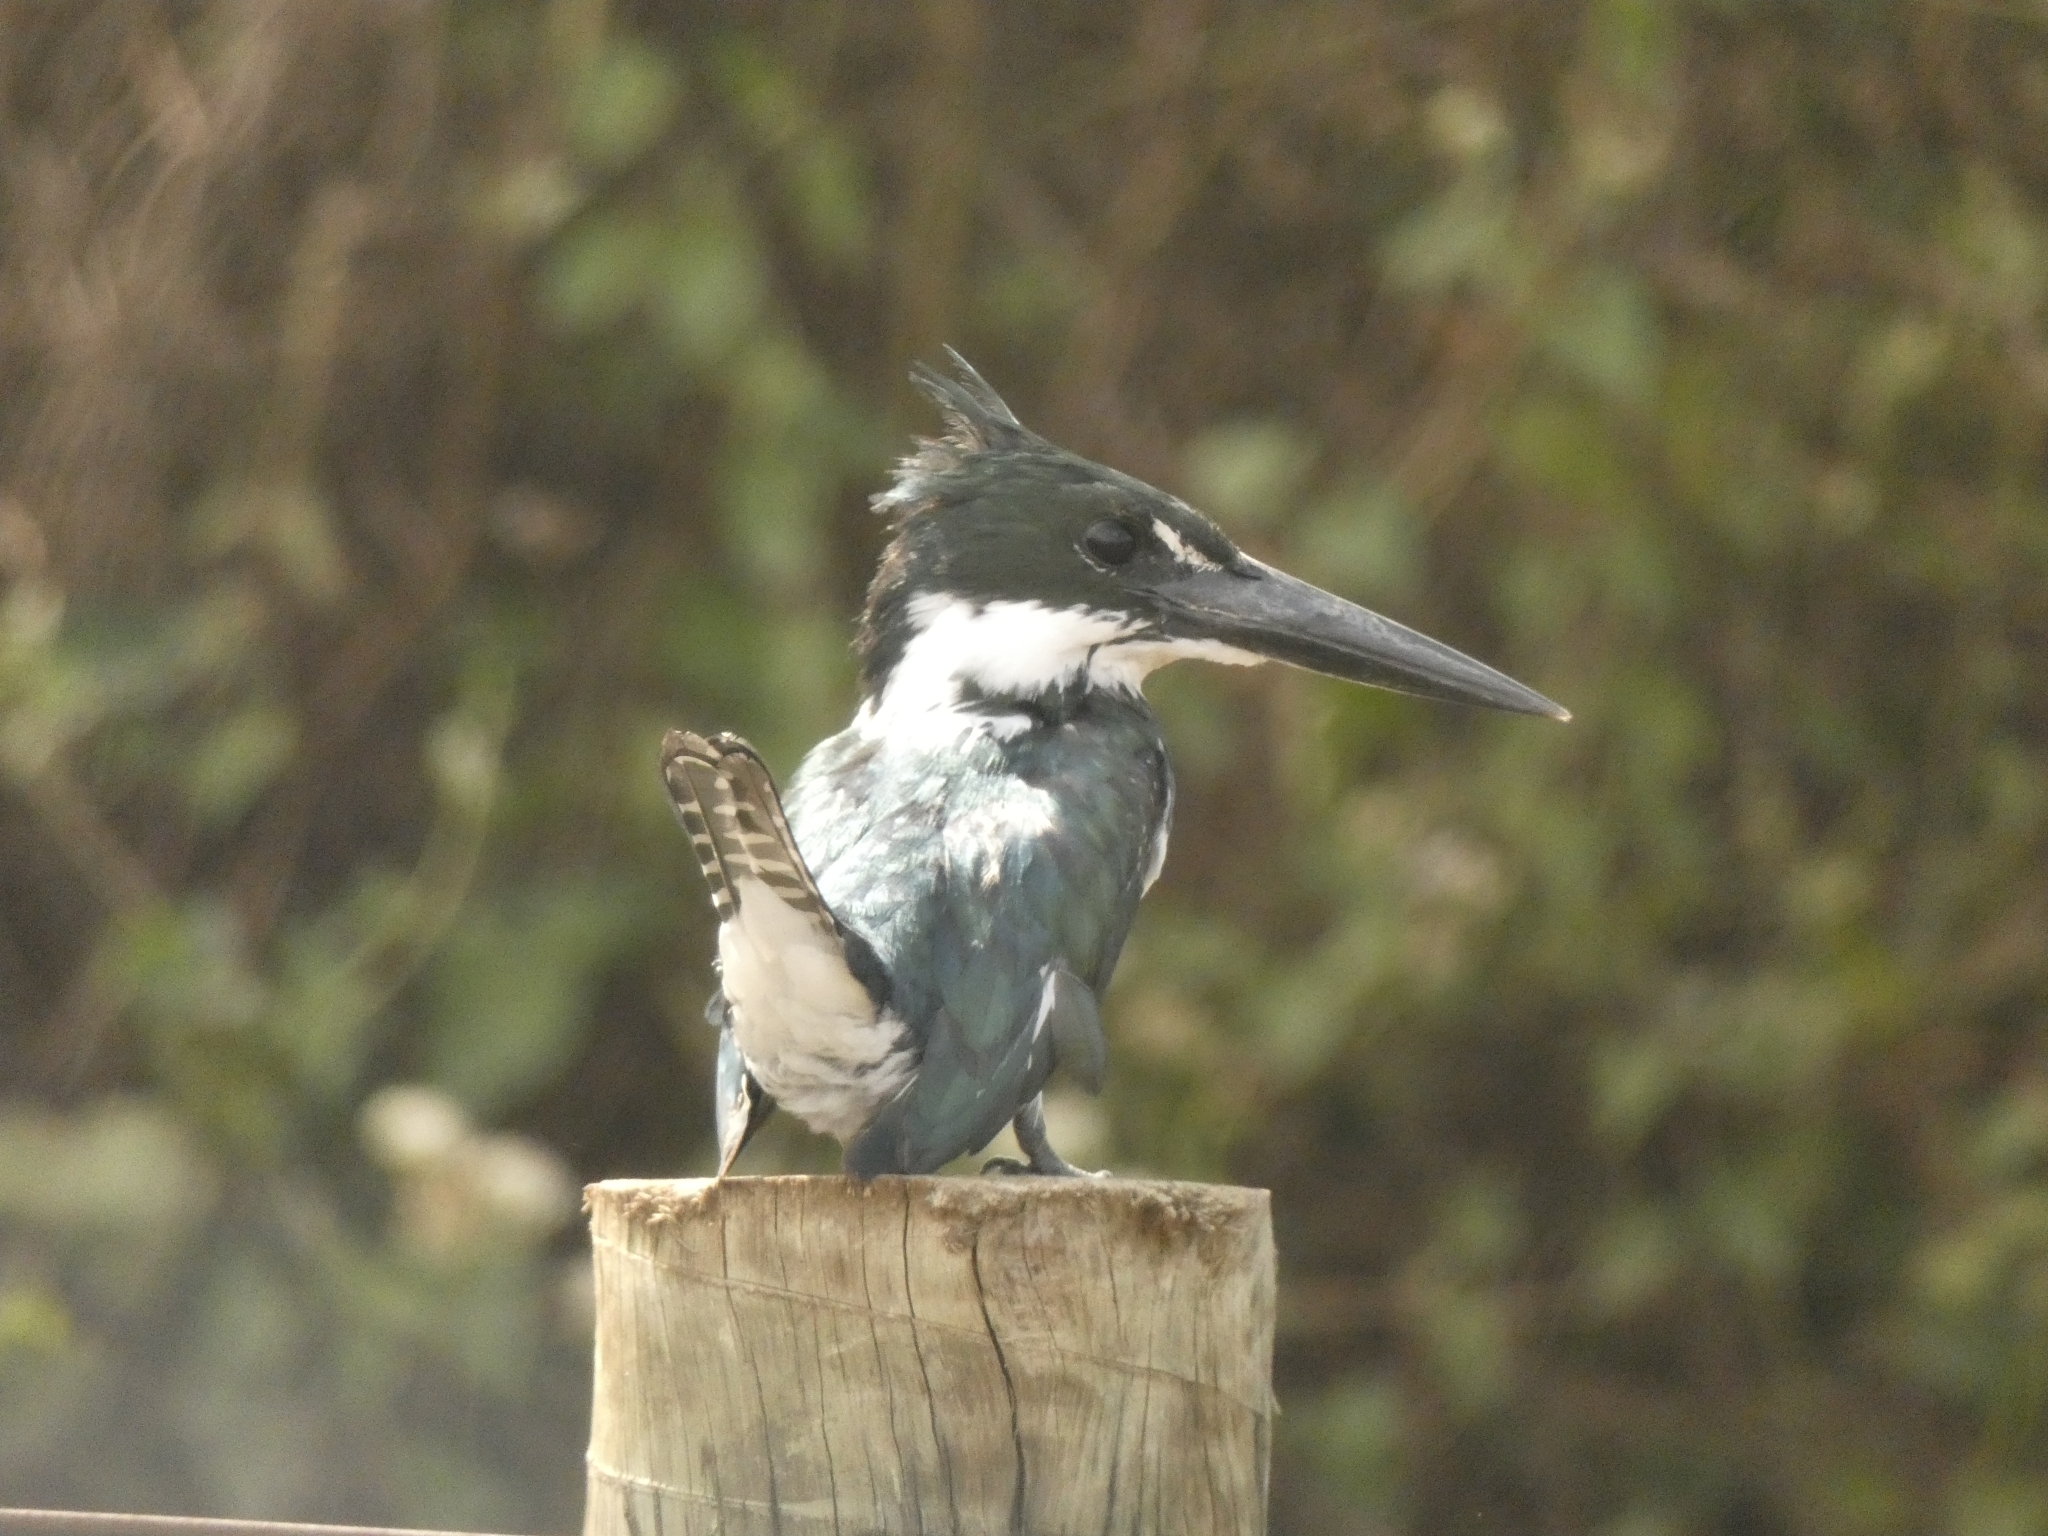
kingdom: Animalia
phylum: Chordata
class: Aves
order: Coraciiformes
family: Alcedinidae
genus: Chloroceryle
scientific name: Chloroceryle amazona
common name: Amazon kingfisher
